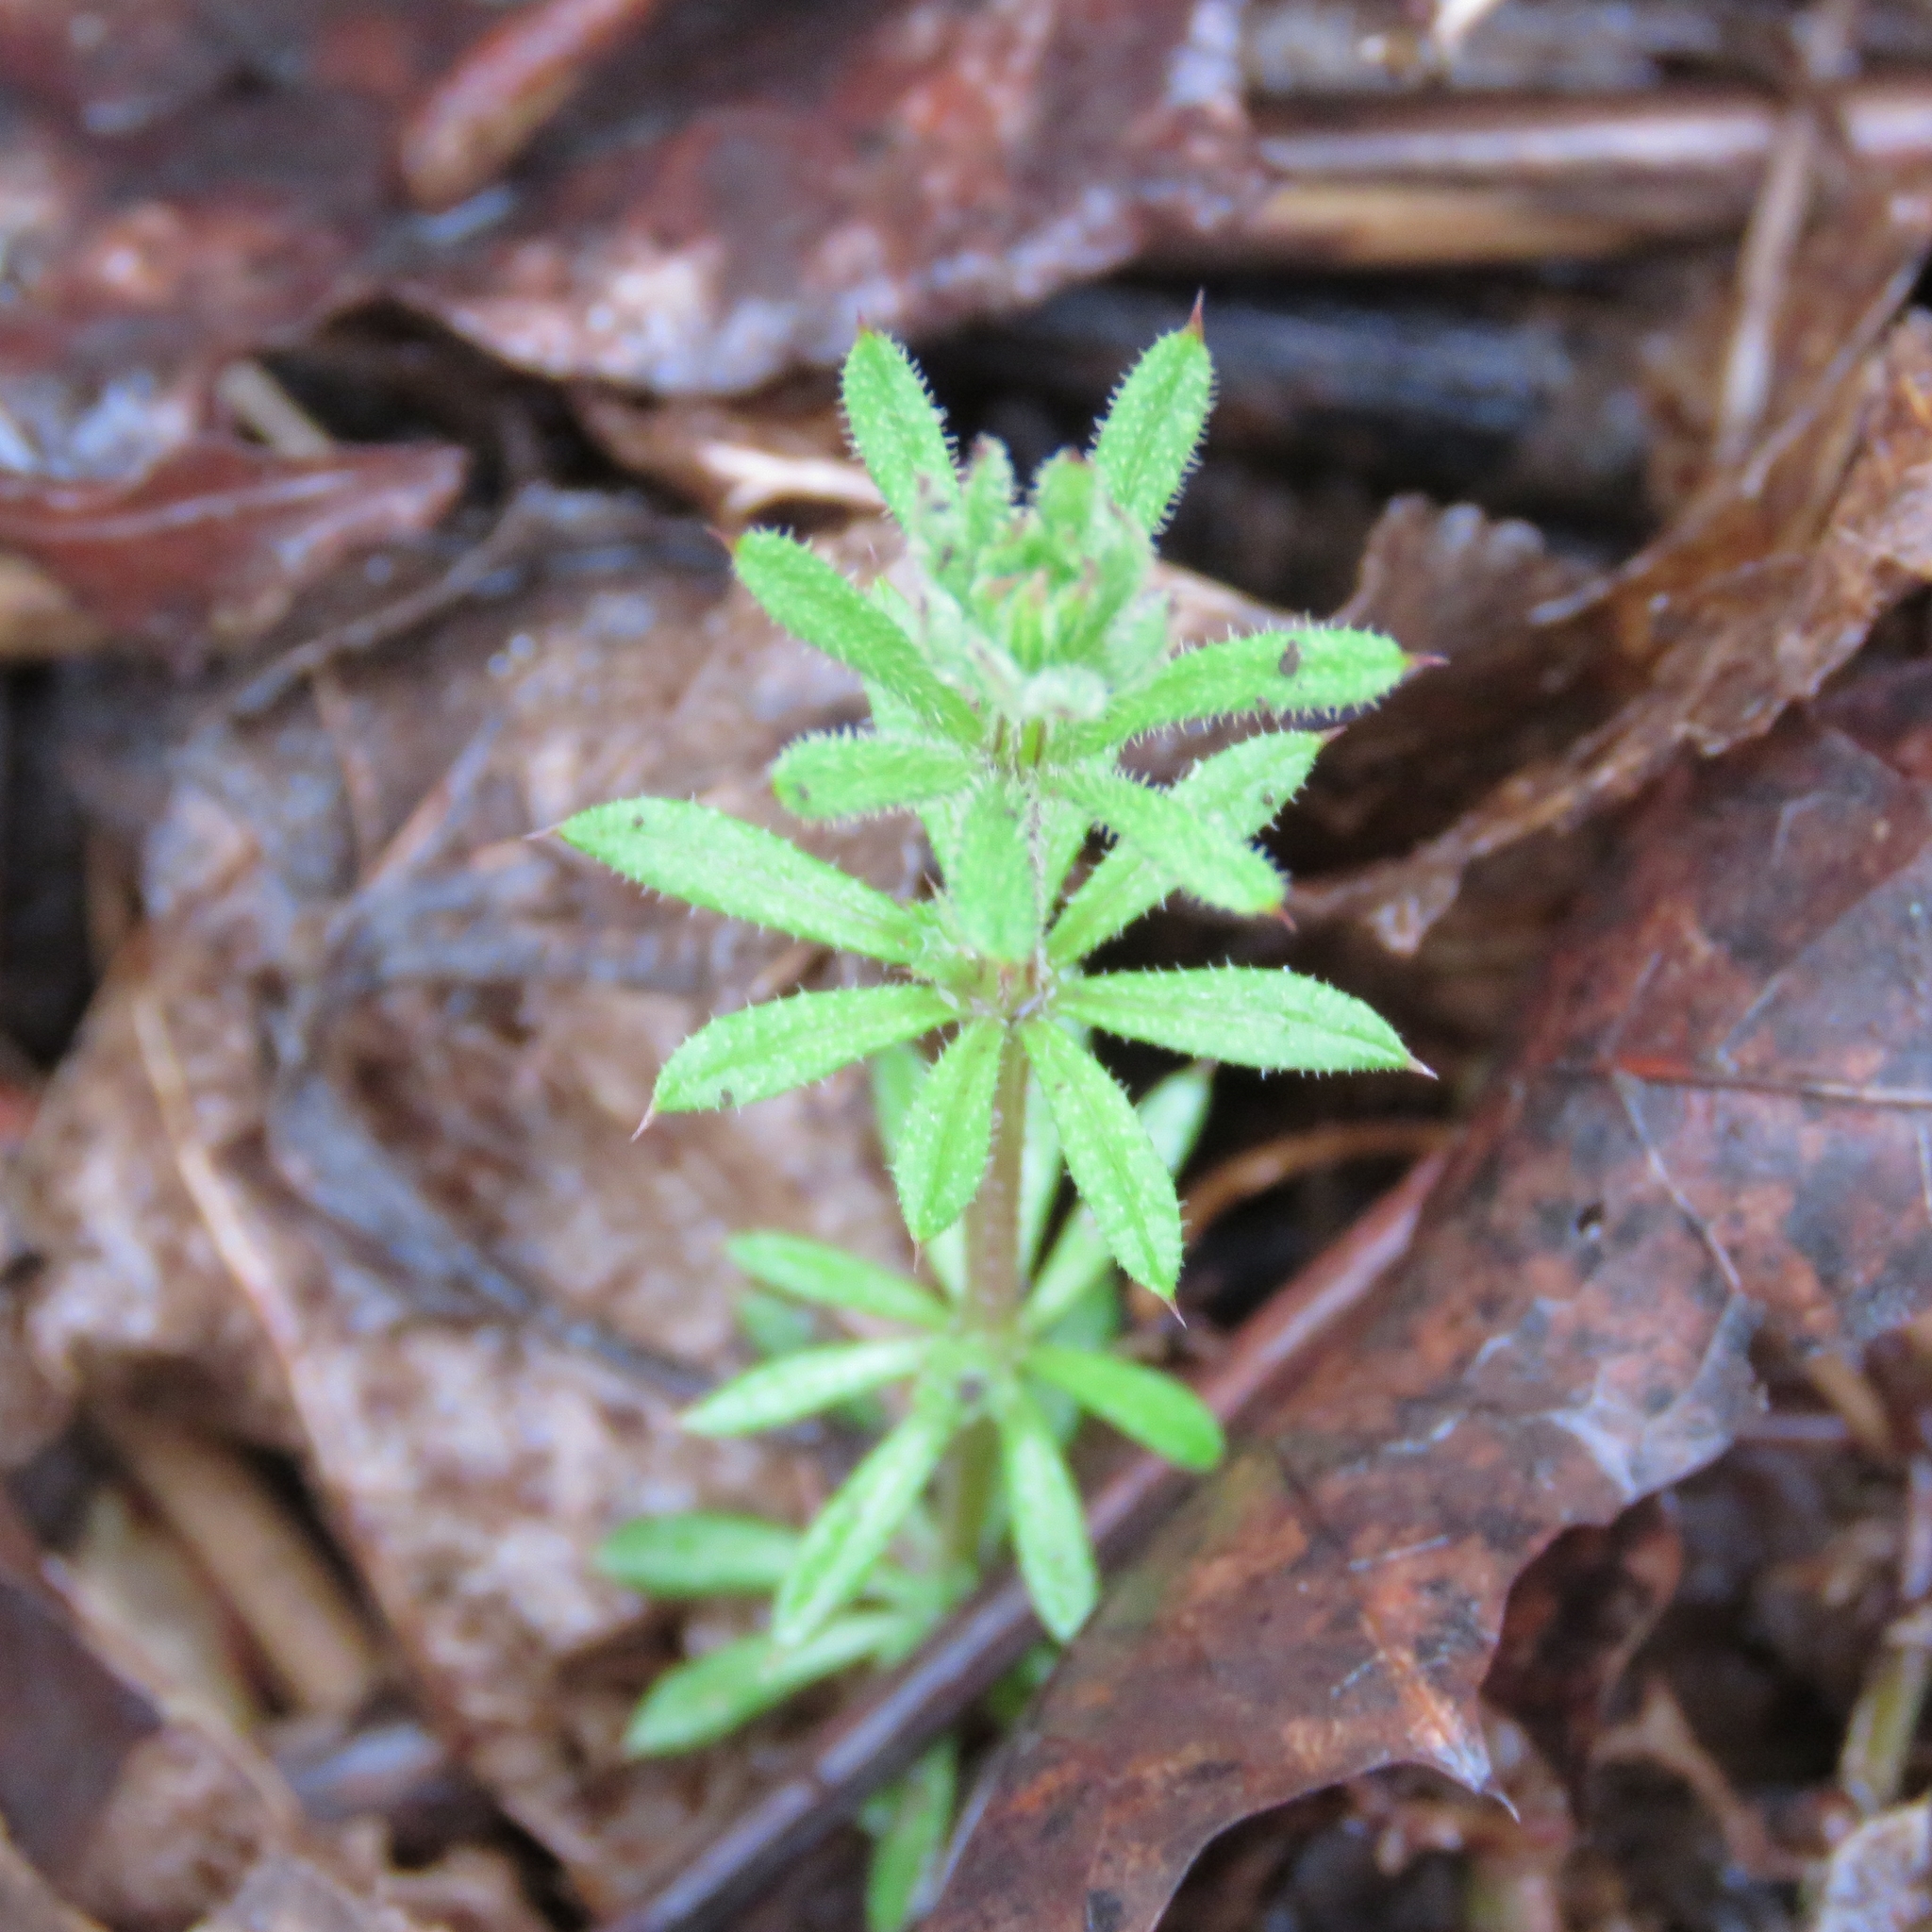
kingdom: Plantae
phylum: Tracheophyta
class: Magnoliopsida
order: Gentianales
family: Rubiaceae
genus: Galium
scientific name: Galium aparine
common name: Cleavers
